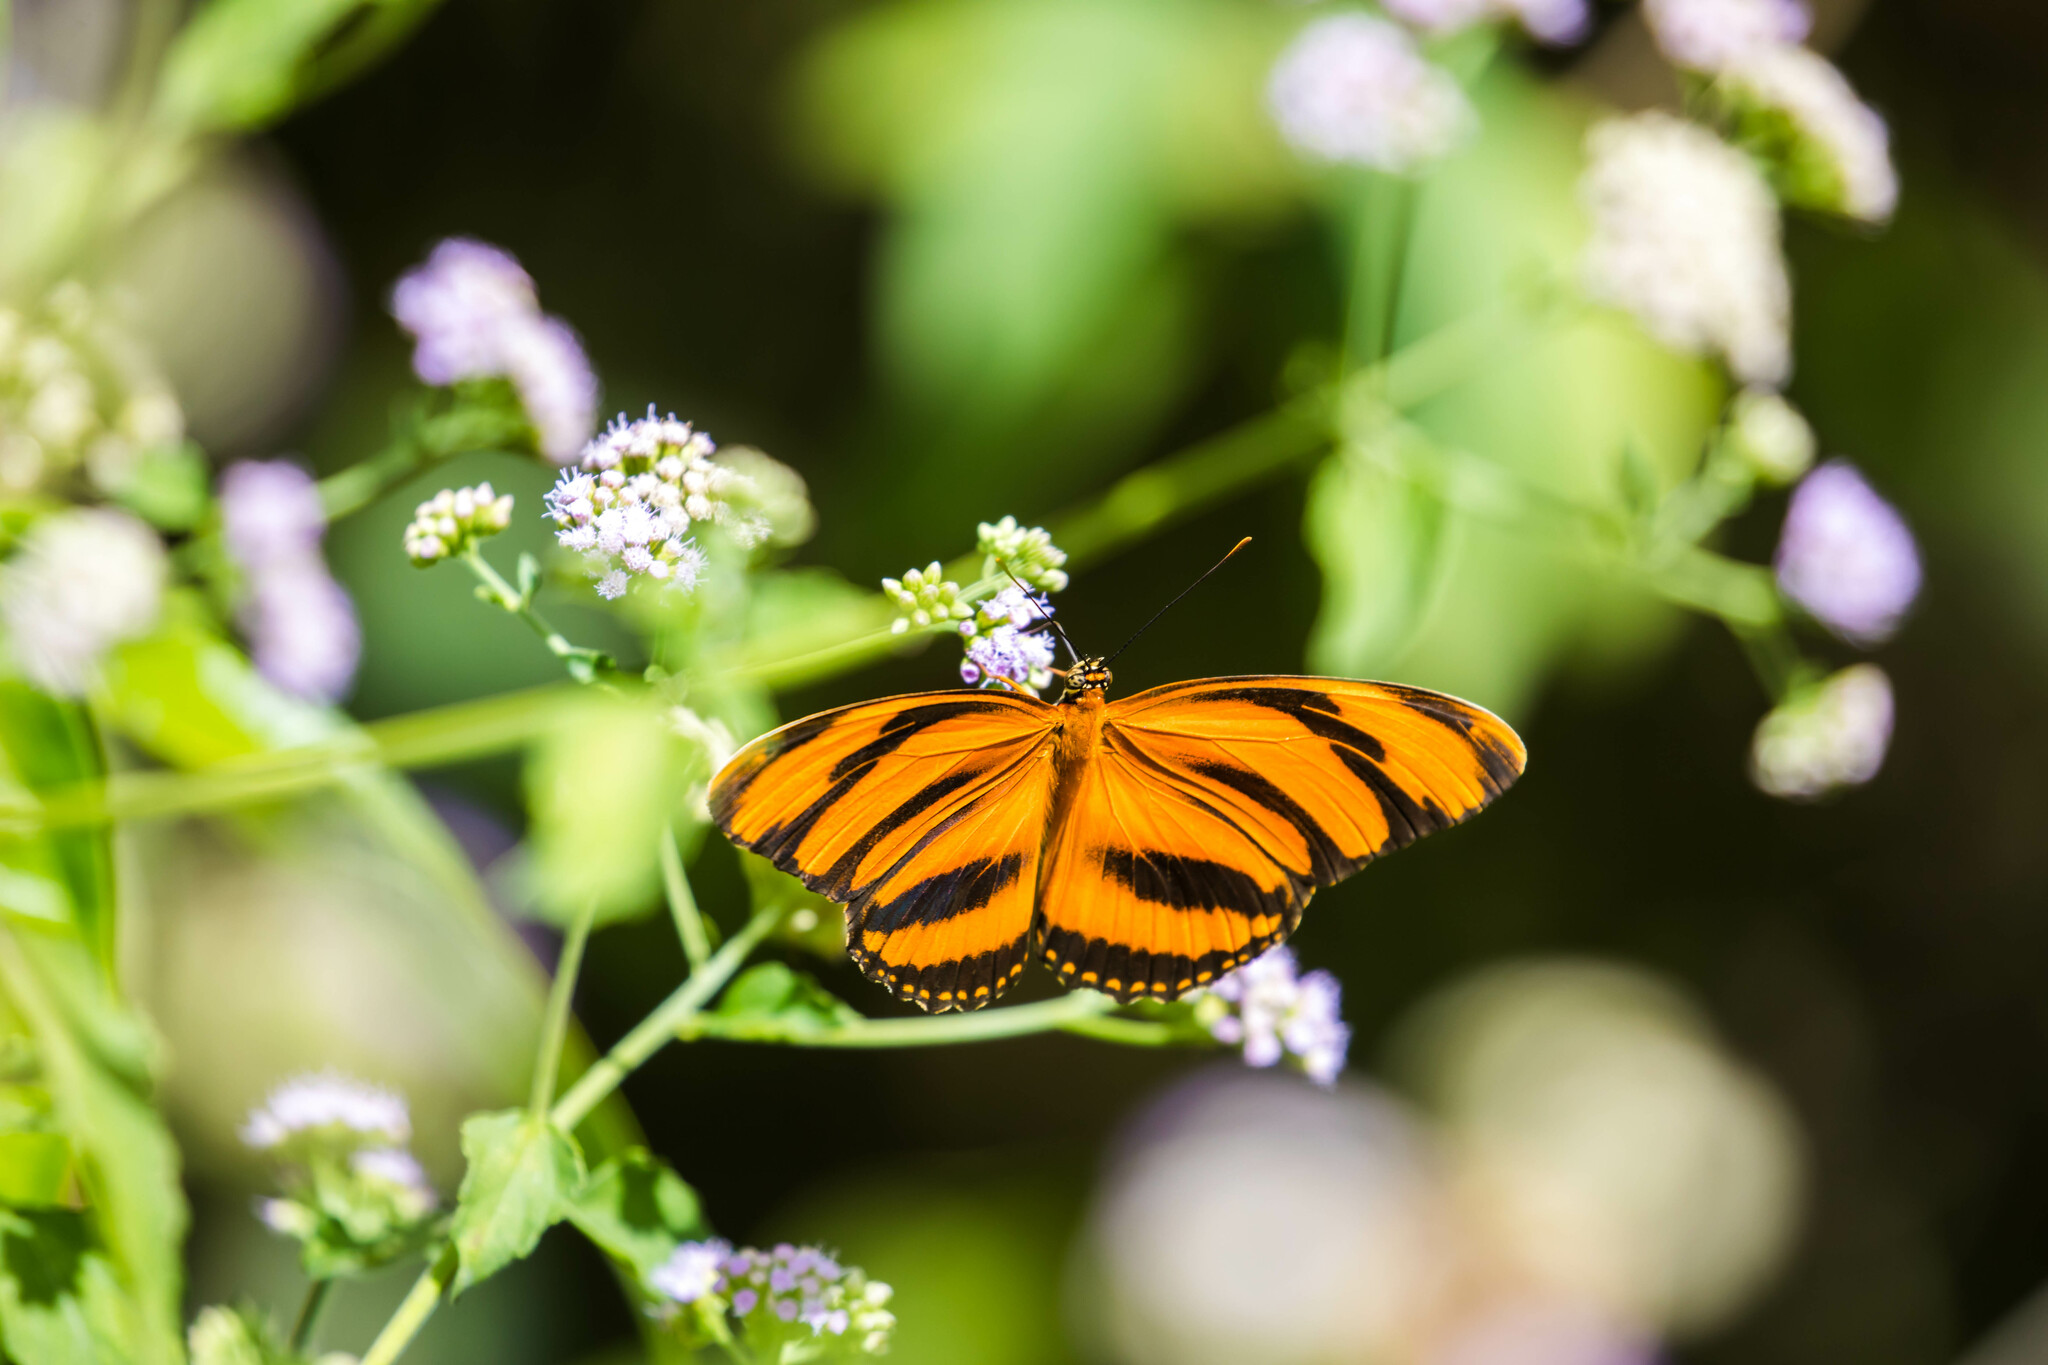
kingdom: Animalia
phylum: Arthropoda
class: Insecta
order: Lepidoptera
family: Nymphalidae
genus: Dryadula
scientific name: Dryadula phaetusa
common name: Banded orange heliconian
